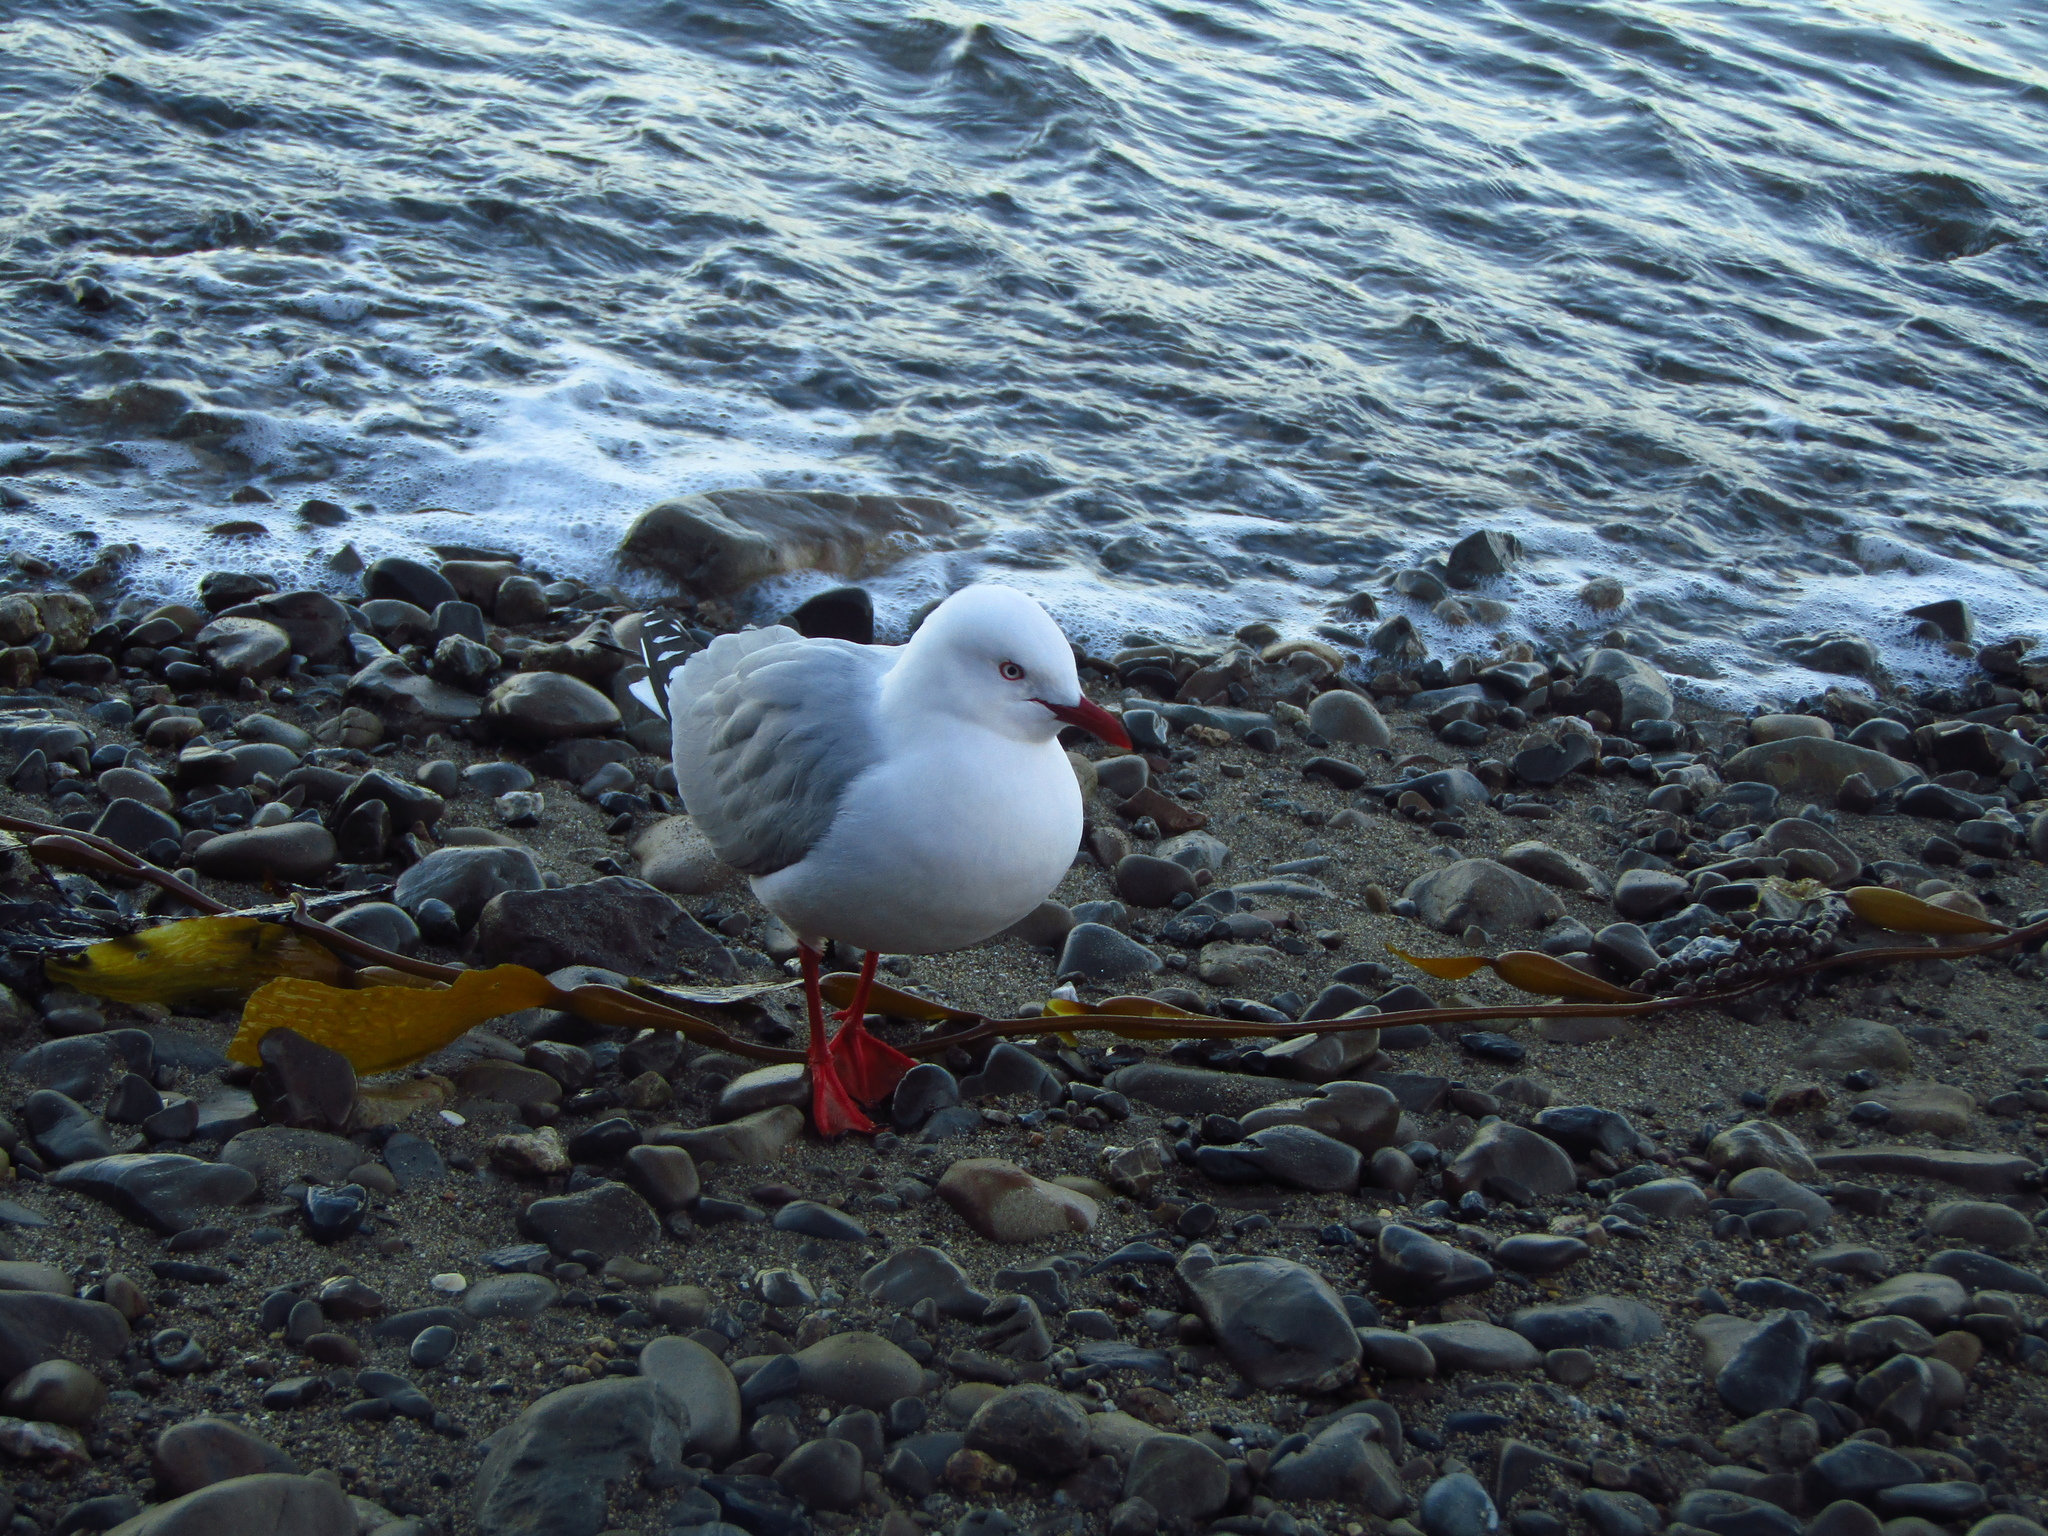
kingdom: Animalia
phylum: Chordata
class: Aves
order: Charadriiformes
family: Laridae
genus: Chroicocephalus
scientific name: Chroicocephalus novaehollandiae
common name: Silver gull
